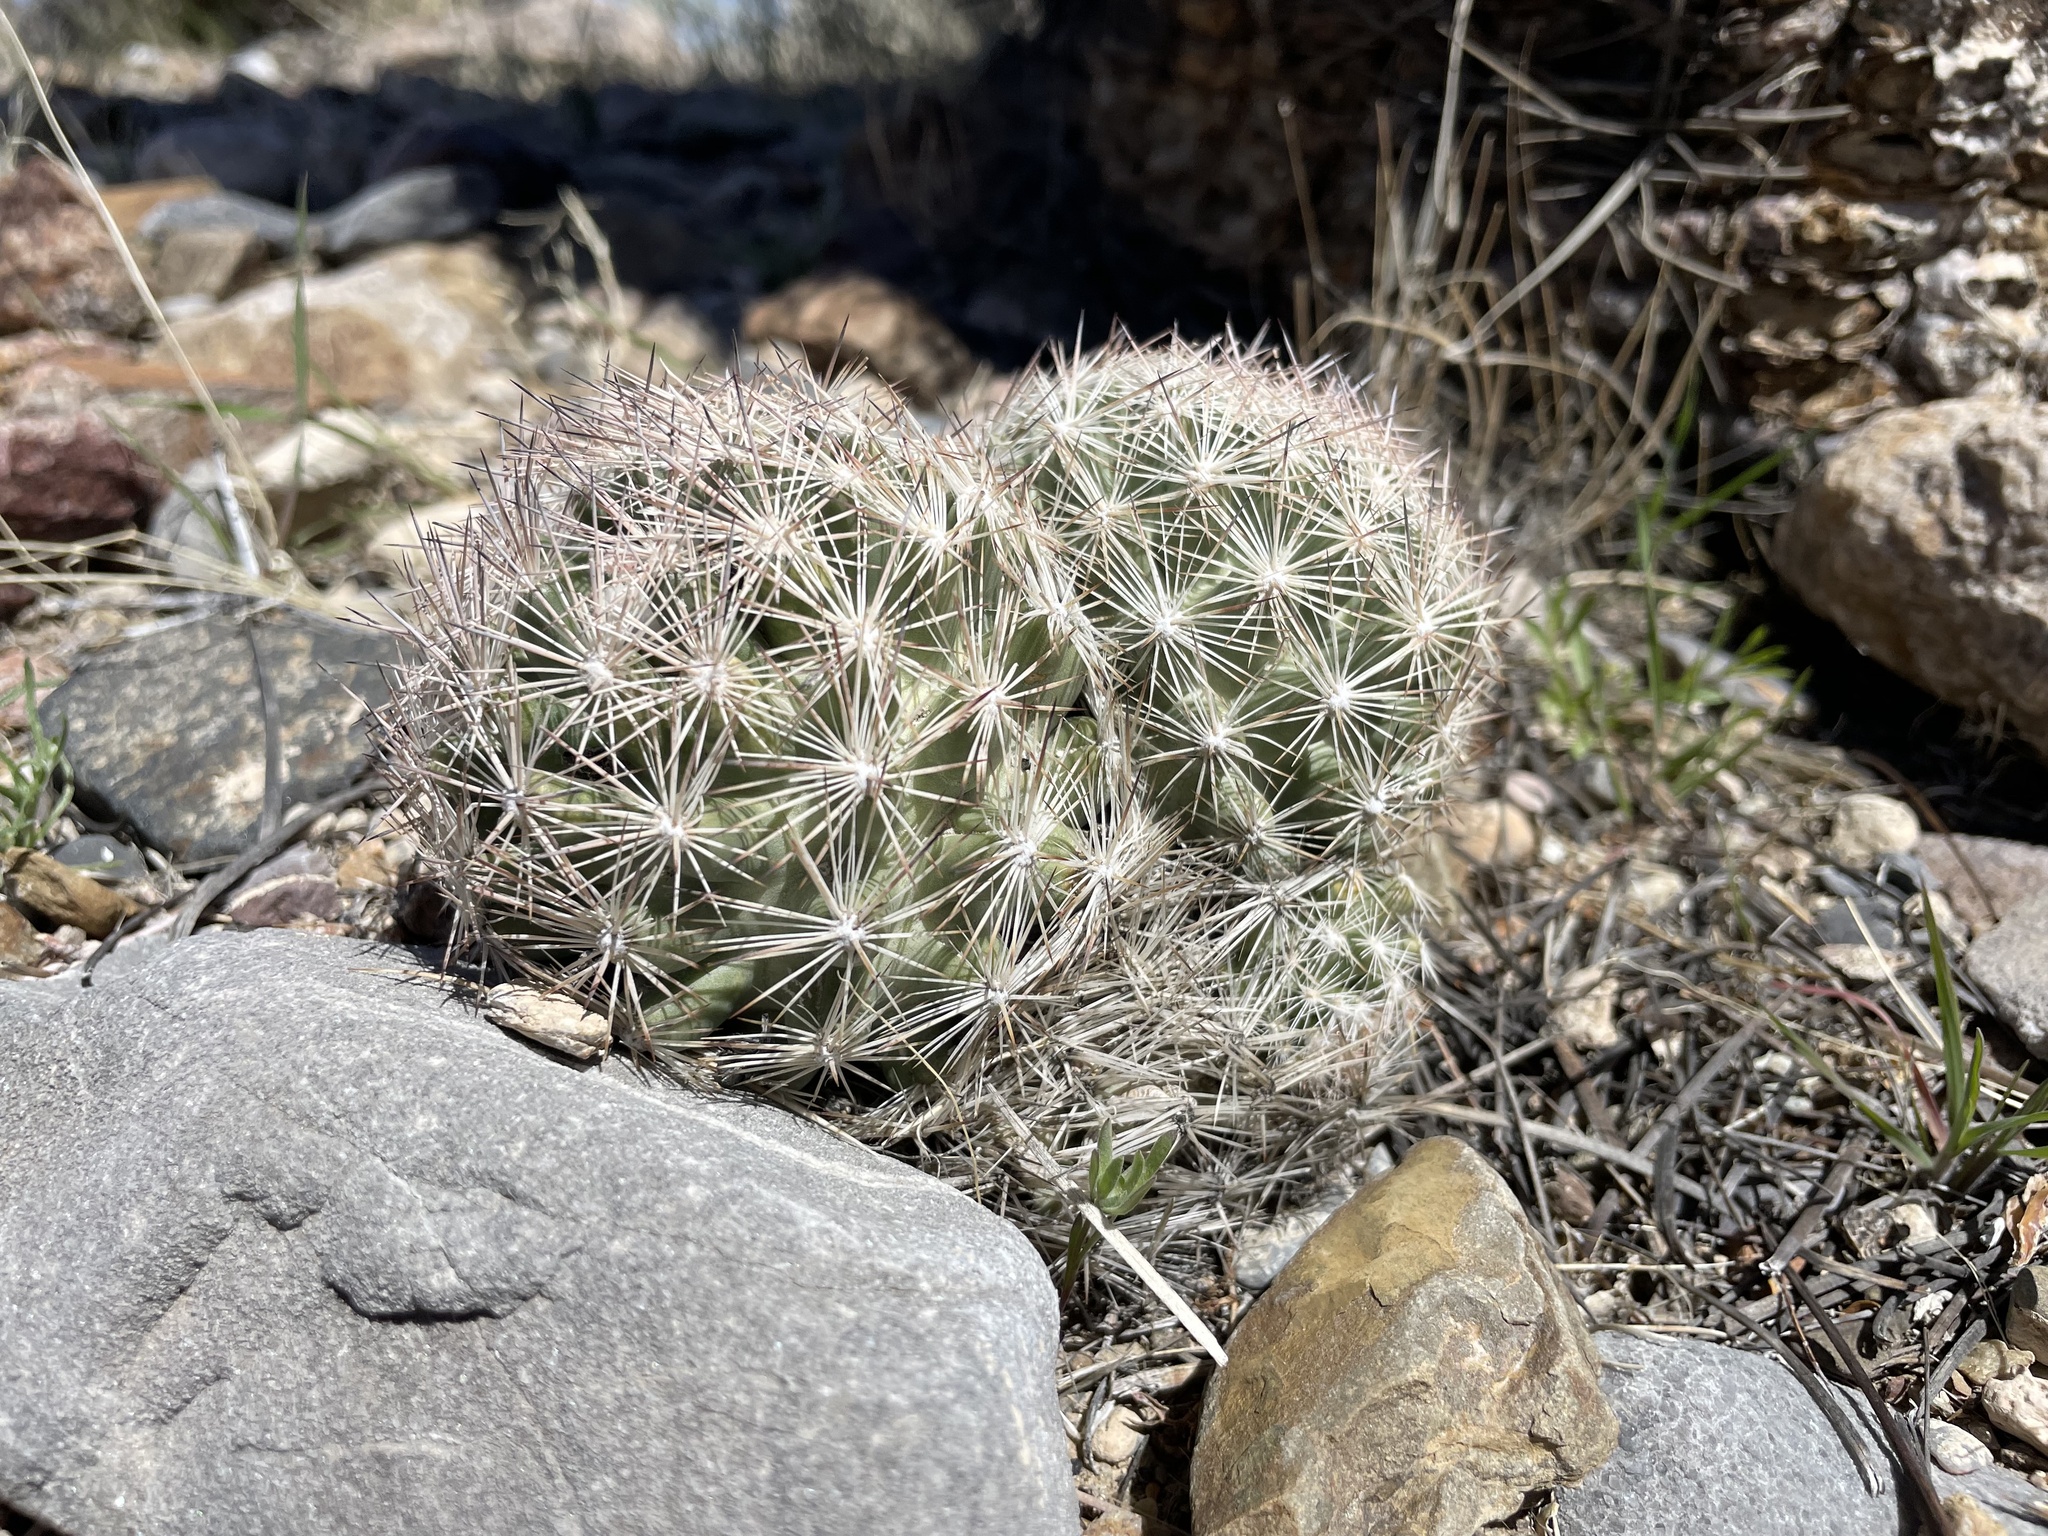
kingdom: Plantae
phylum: Tracheophyta
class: Magnoliopsida
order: Caryophyllales
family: Cactaceae
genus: Pelecyphora
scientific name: Pelecyphora dasyacantha
